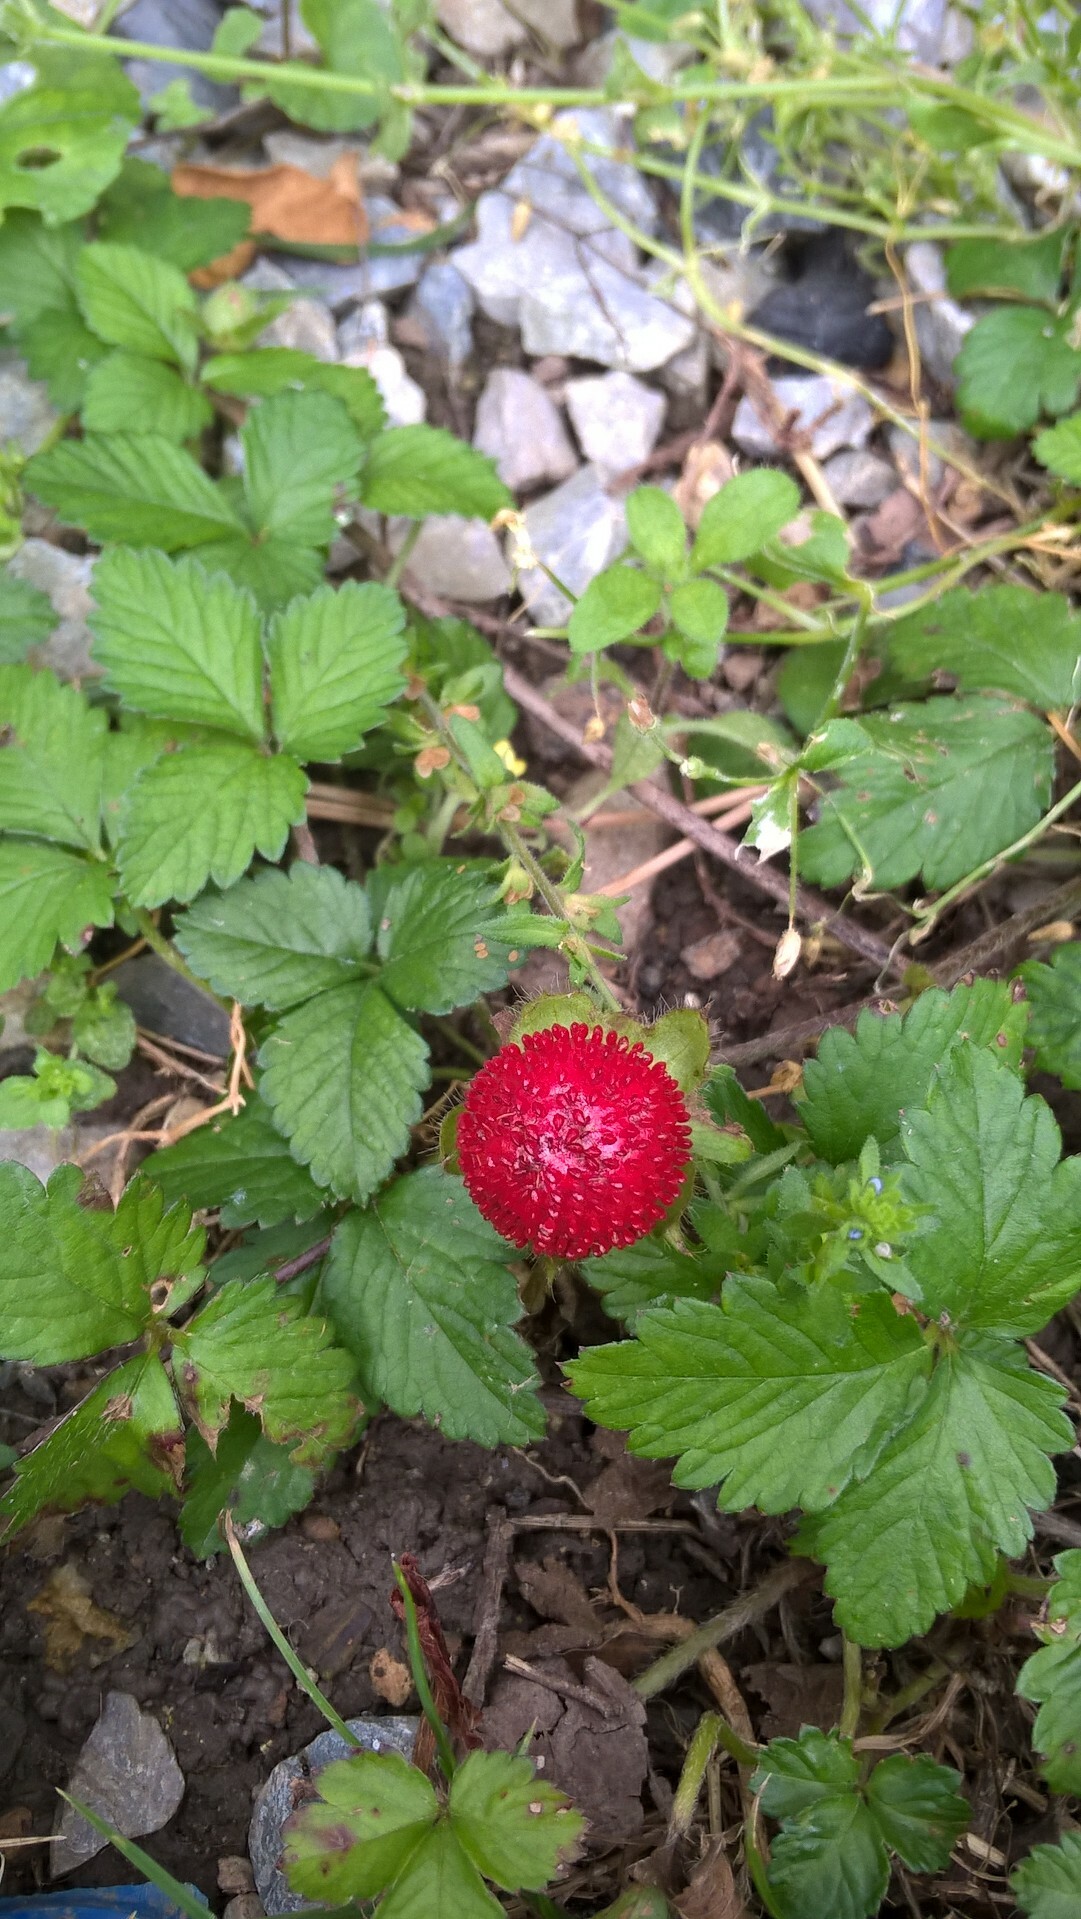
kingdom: Plantae
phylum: Tracheophyta
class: Magnoliopsida
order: Rosales
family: Rosaceae
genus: Potentilla
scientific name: Potentilla indica
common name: Yellow-flowered strawberry
